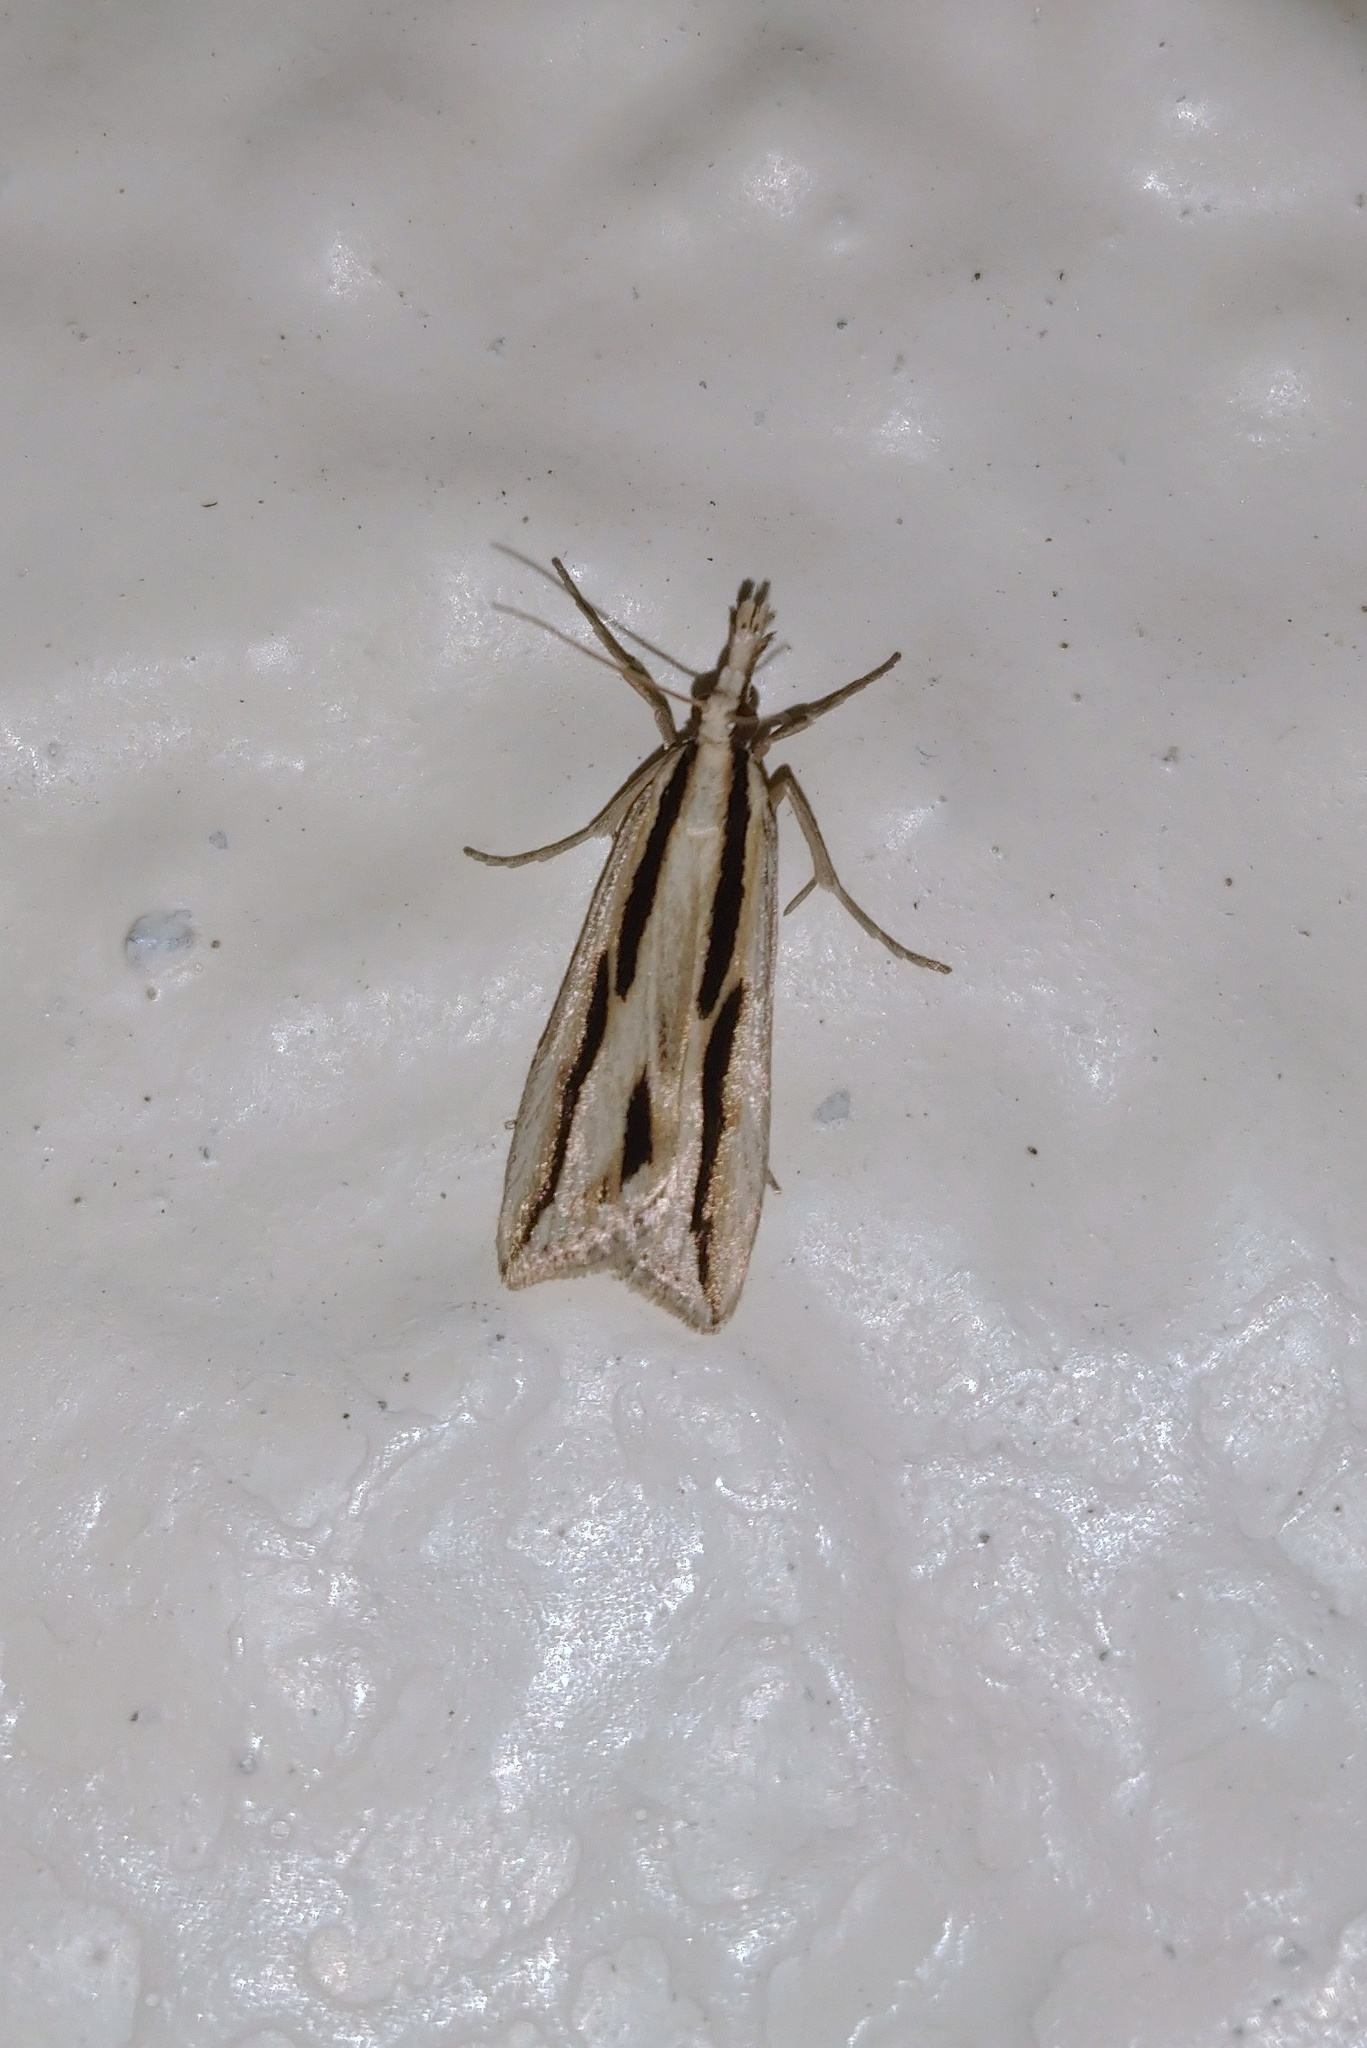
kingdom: Animalia
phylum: Arthropoda
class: Insecta
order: Lepidoptera
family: Crambidae
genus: Eudonia
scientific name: Eudonia trivirgata
